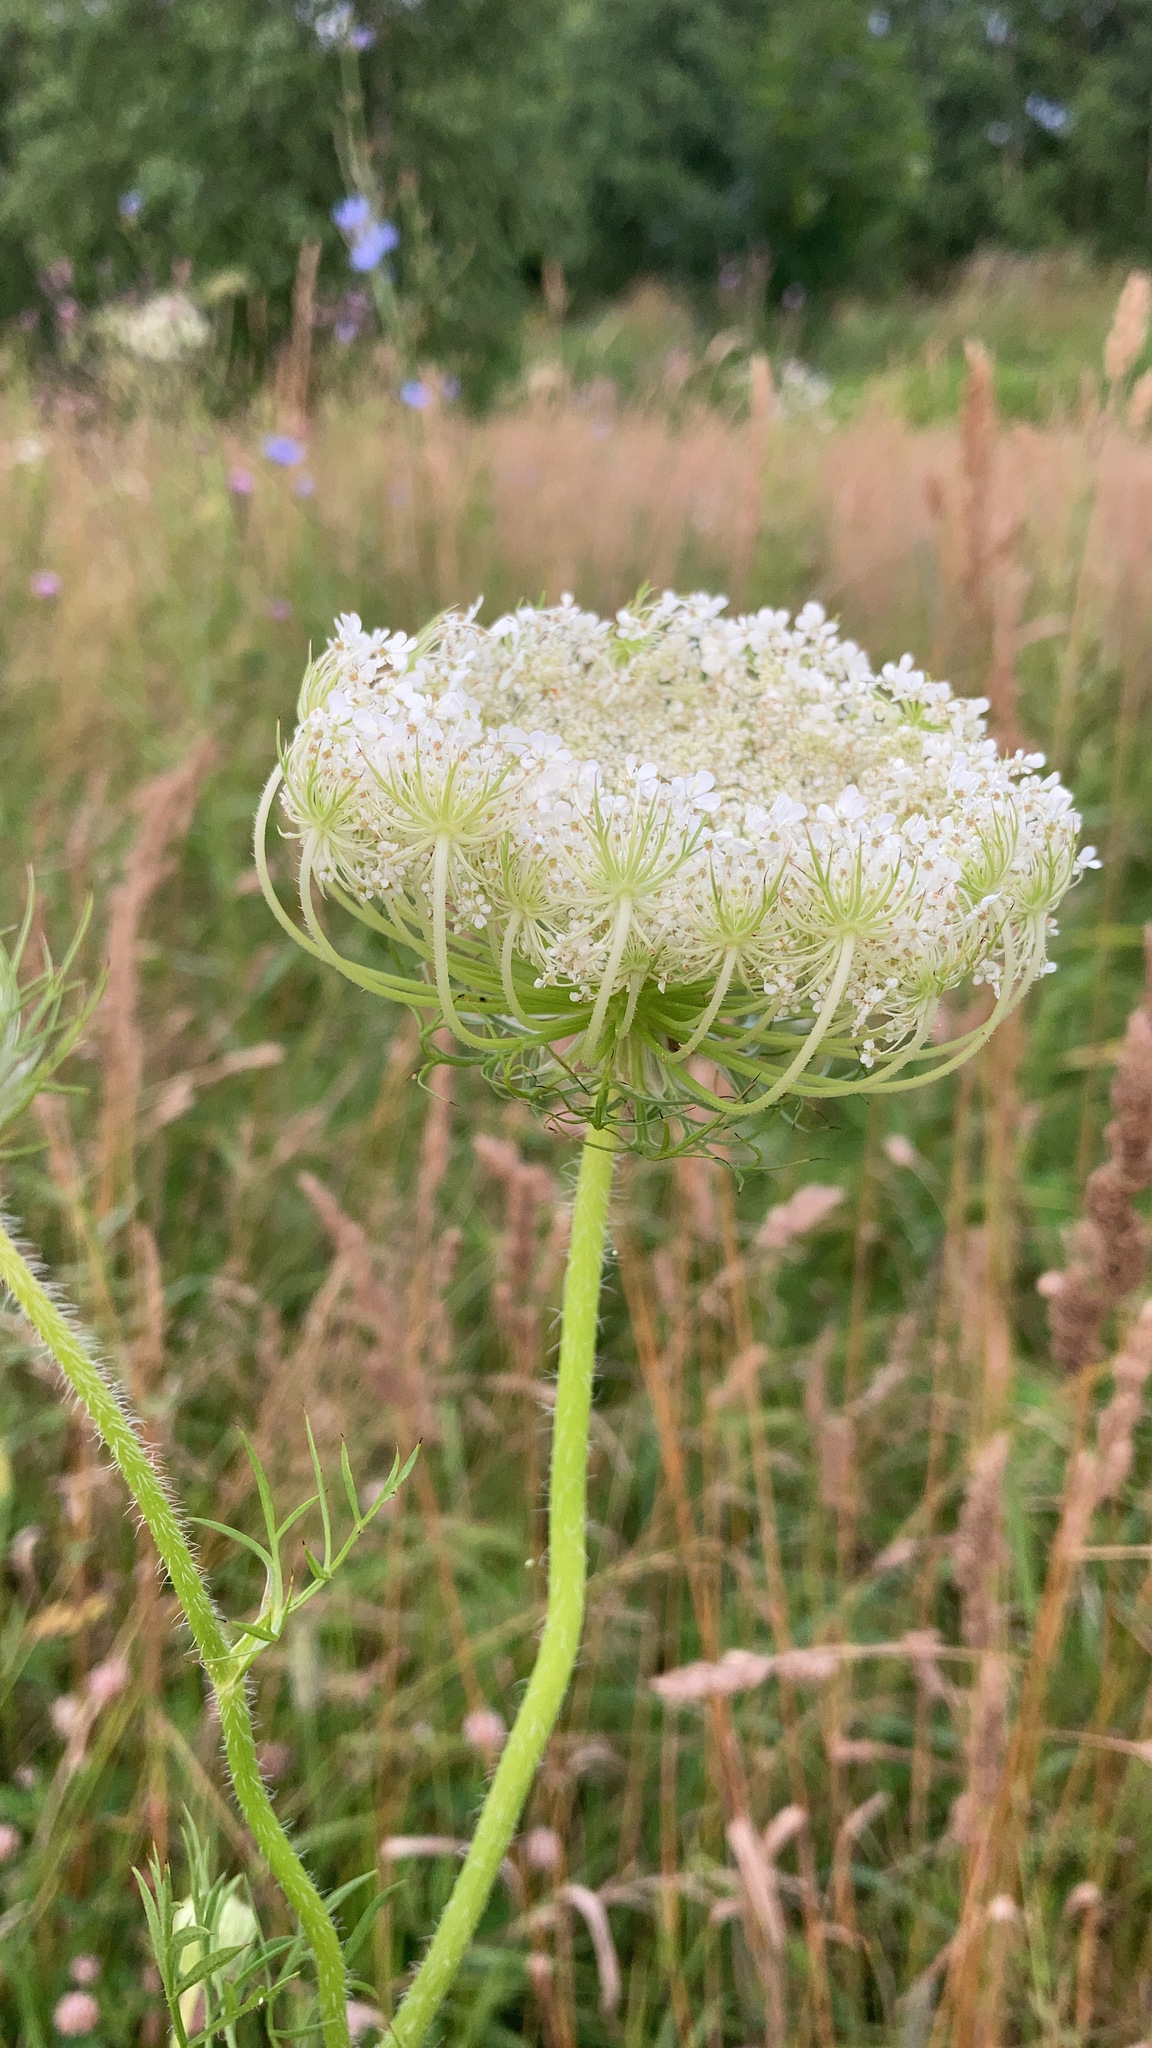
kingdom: Plantae
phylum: Tracheophyta
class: Magnoliopsida
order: Apiales
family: Apiaceae
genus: Daucus
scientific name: Daucus carota
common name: Wild carrot
